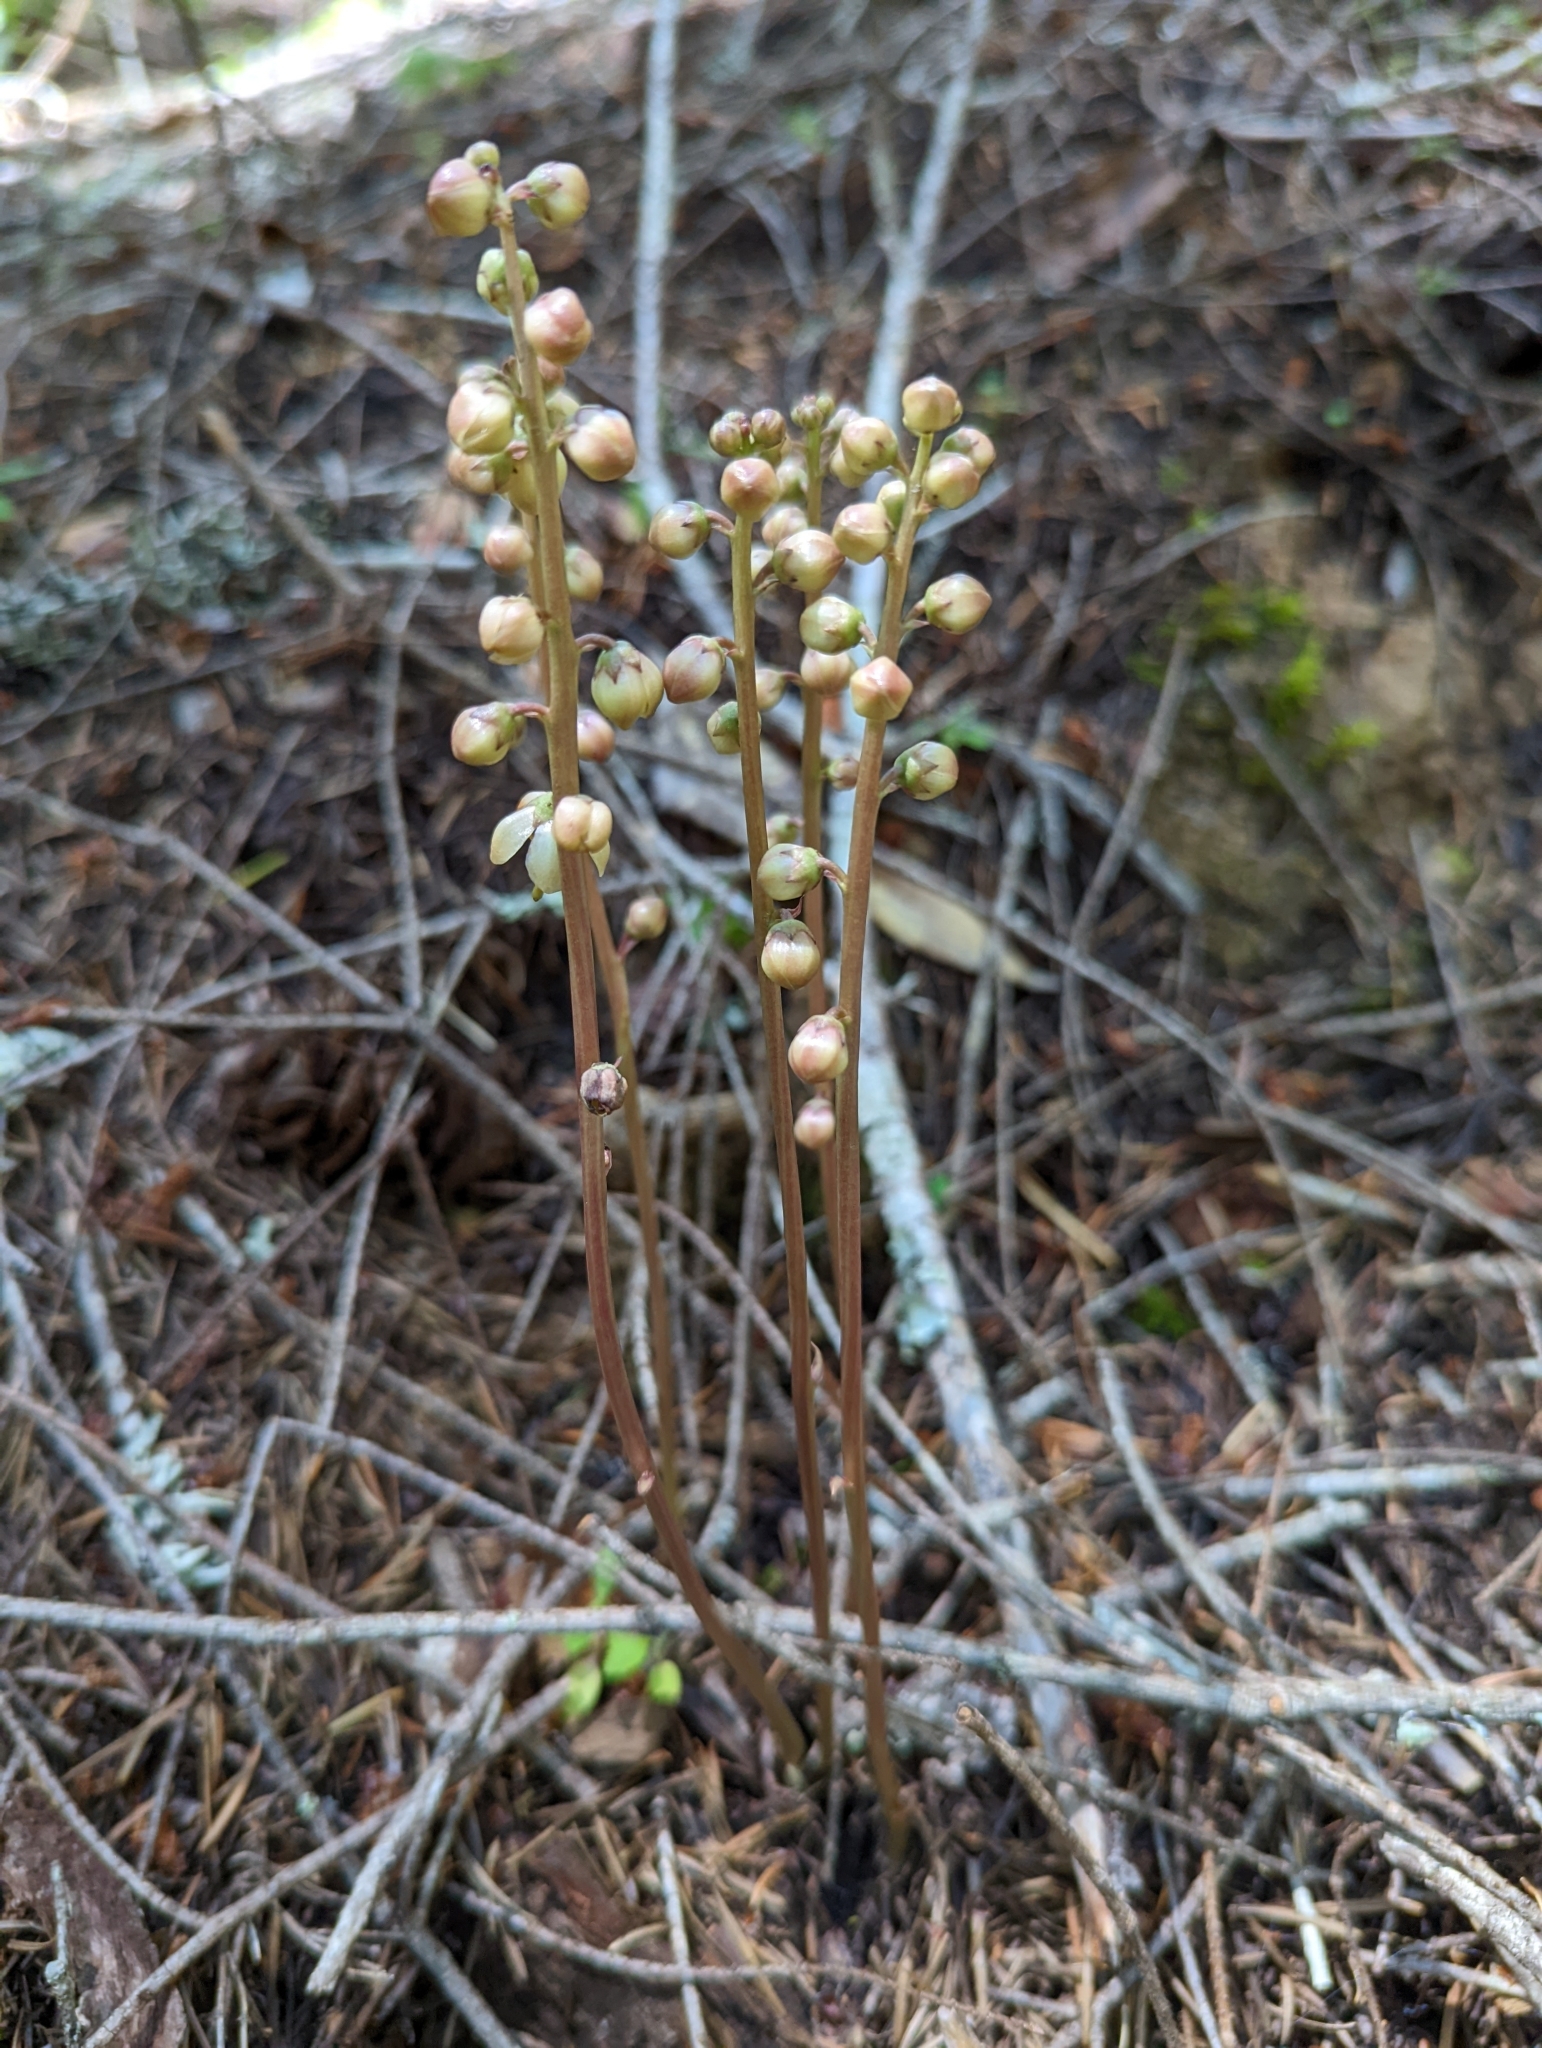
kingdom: Plantae
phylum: Tracheophyta
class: Magnoliopsida
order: Ericales
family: Ericaceae
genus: Pyrola
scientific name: Pyrola aphylla
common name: Leafless wintergreen
